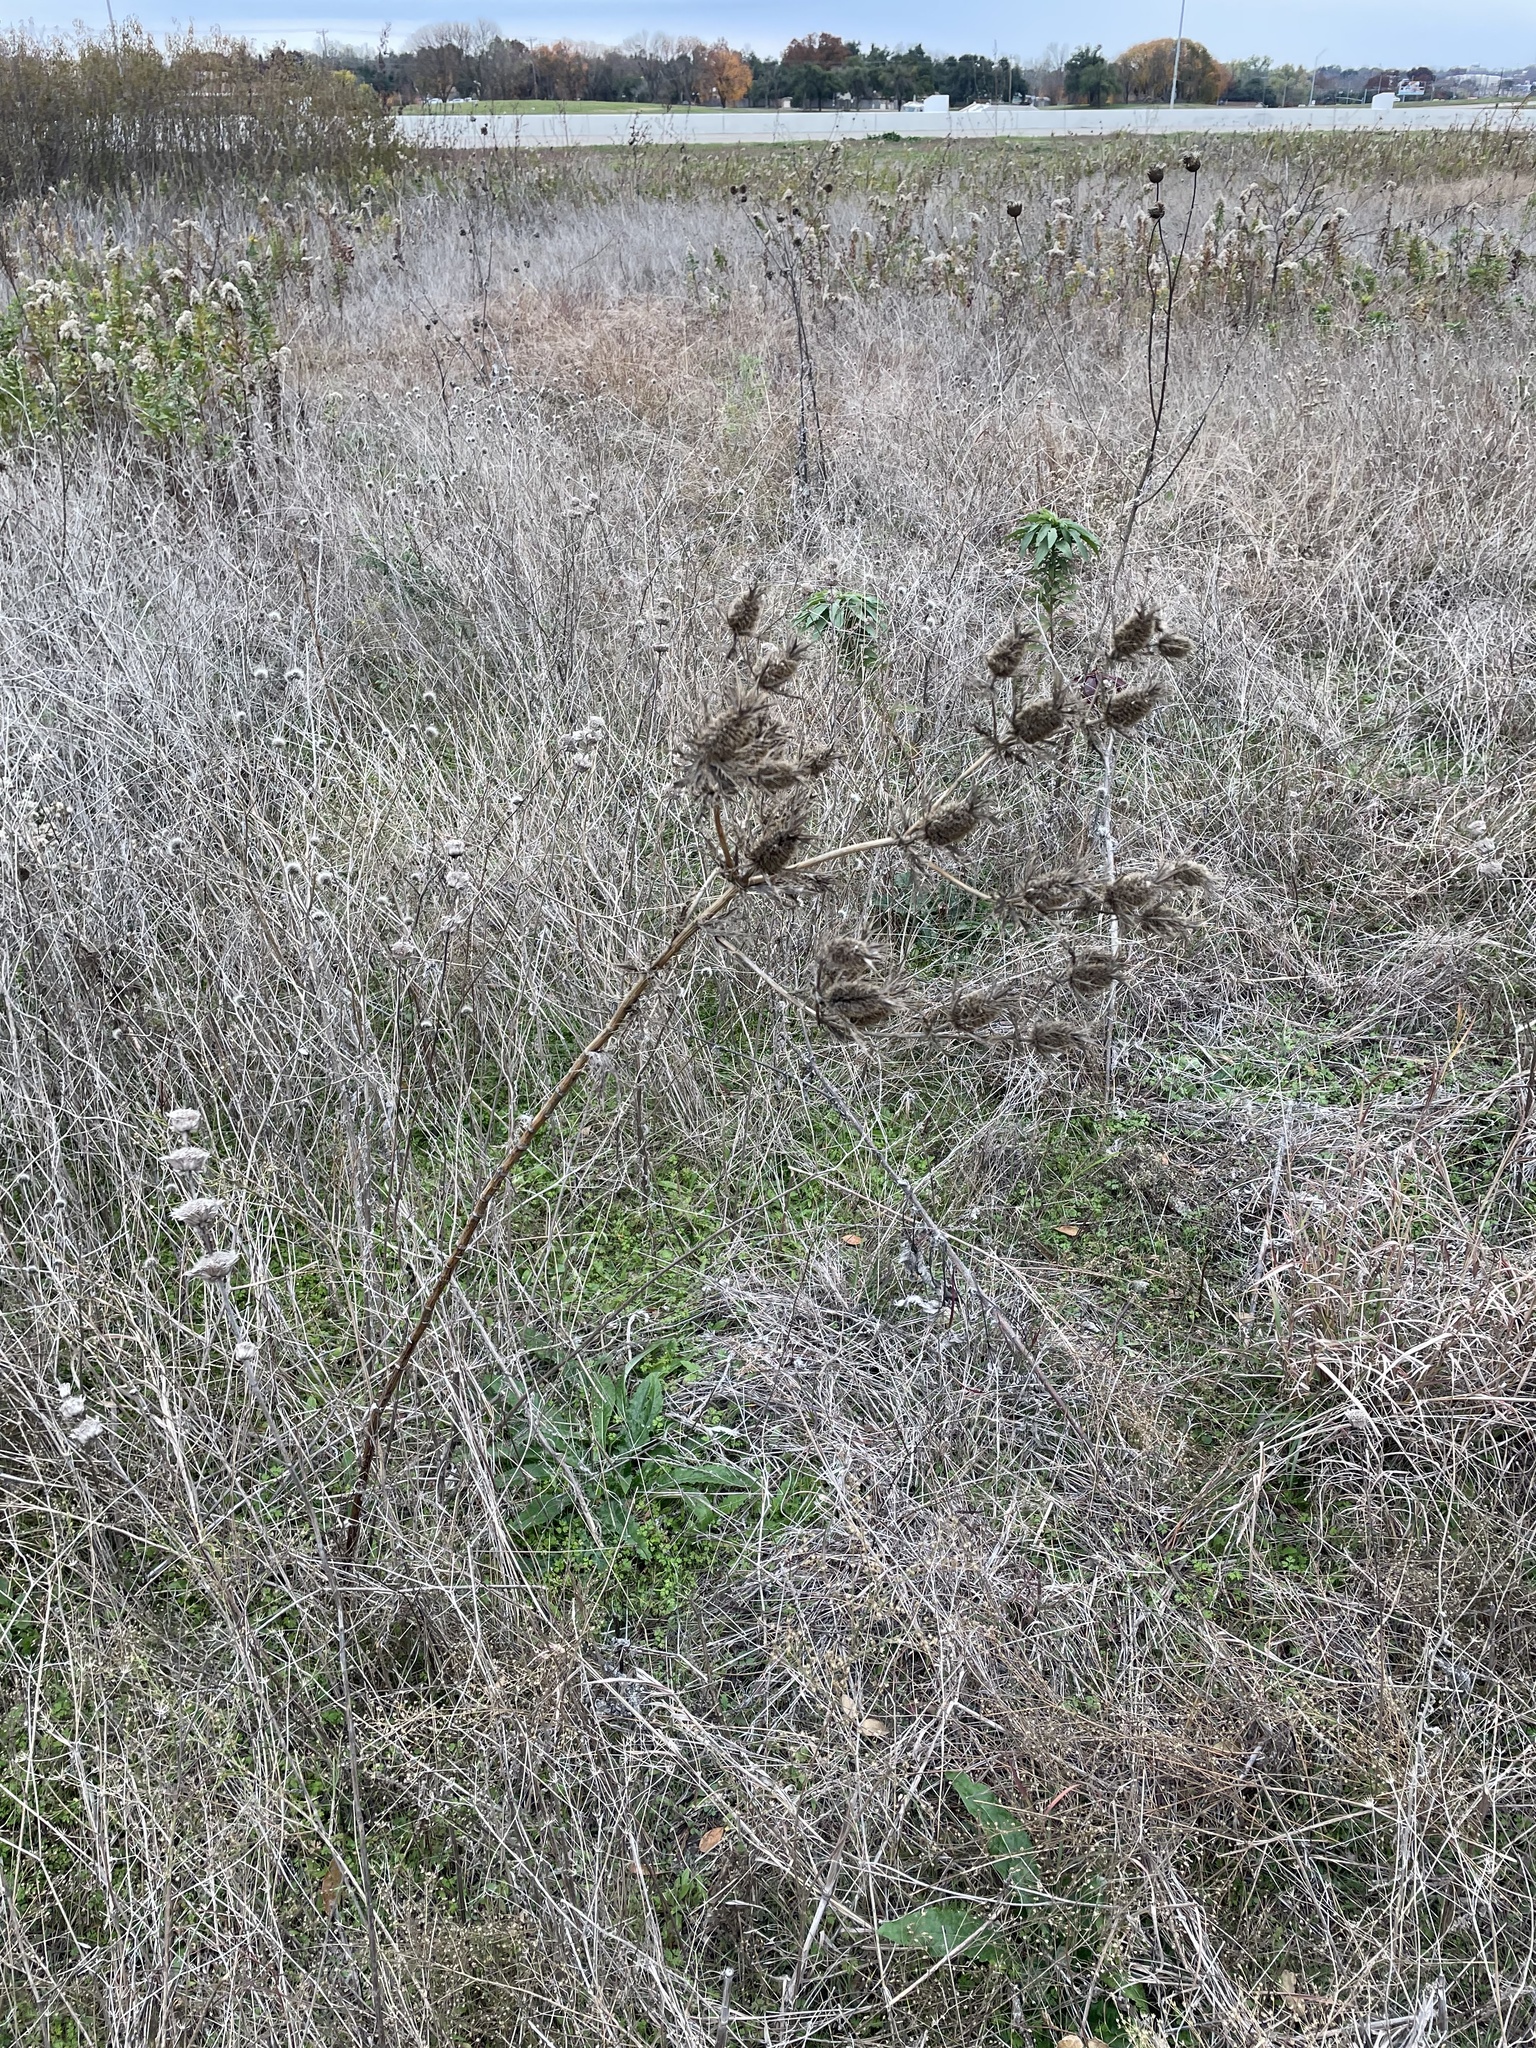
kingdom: Plantae
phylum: Tracheophyta
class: Magnoliopsida
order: Apiales
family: Apiaceae
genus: Eryngium
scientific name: Eryngium leavenworthii
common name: Leavenworth's eryngo
